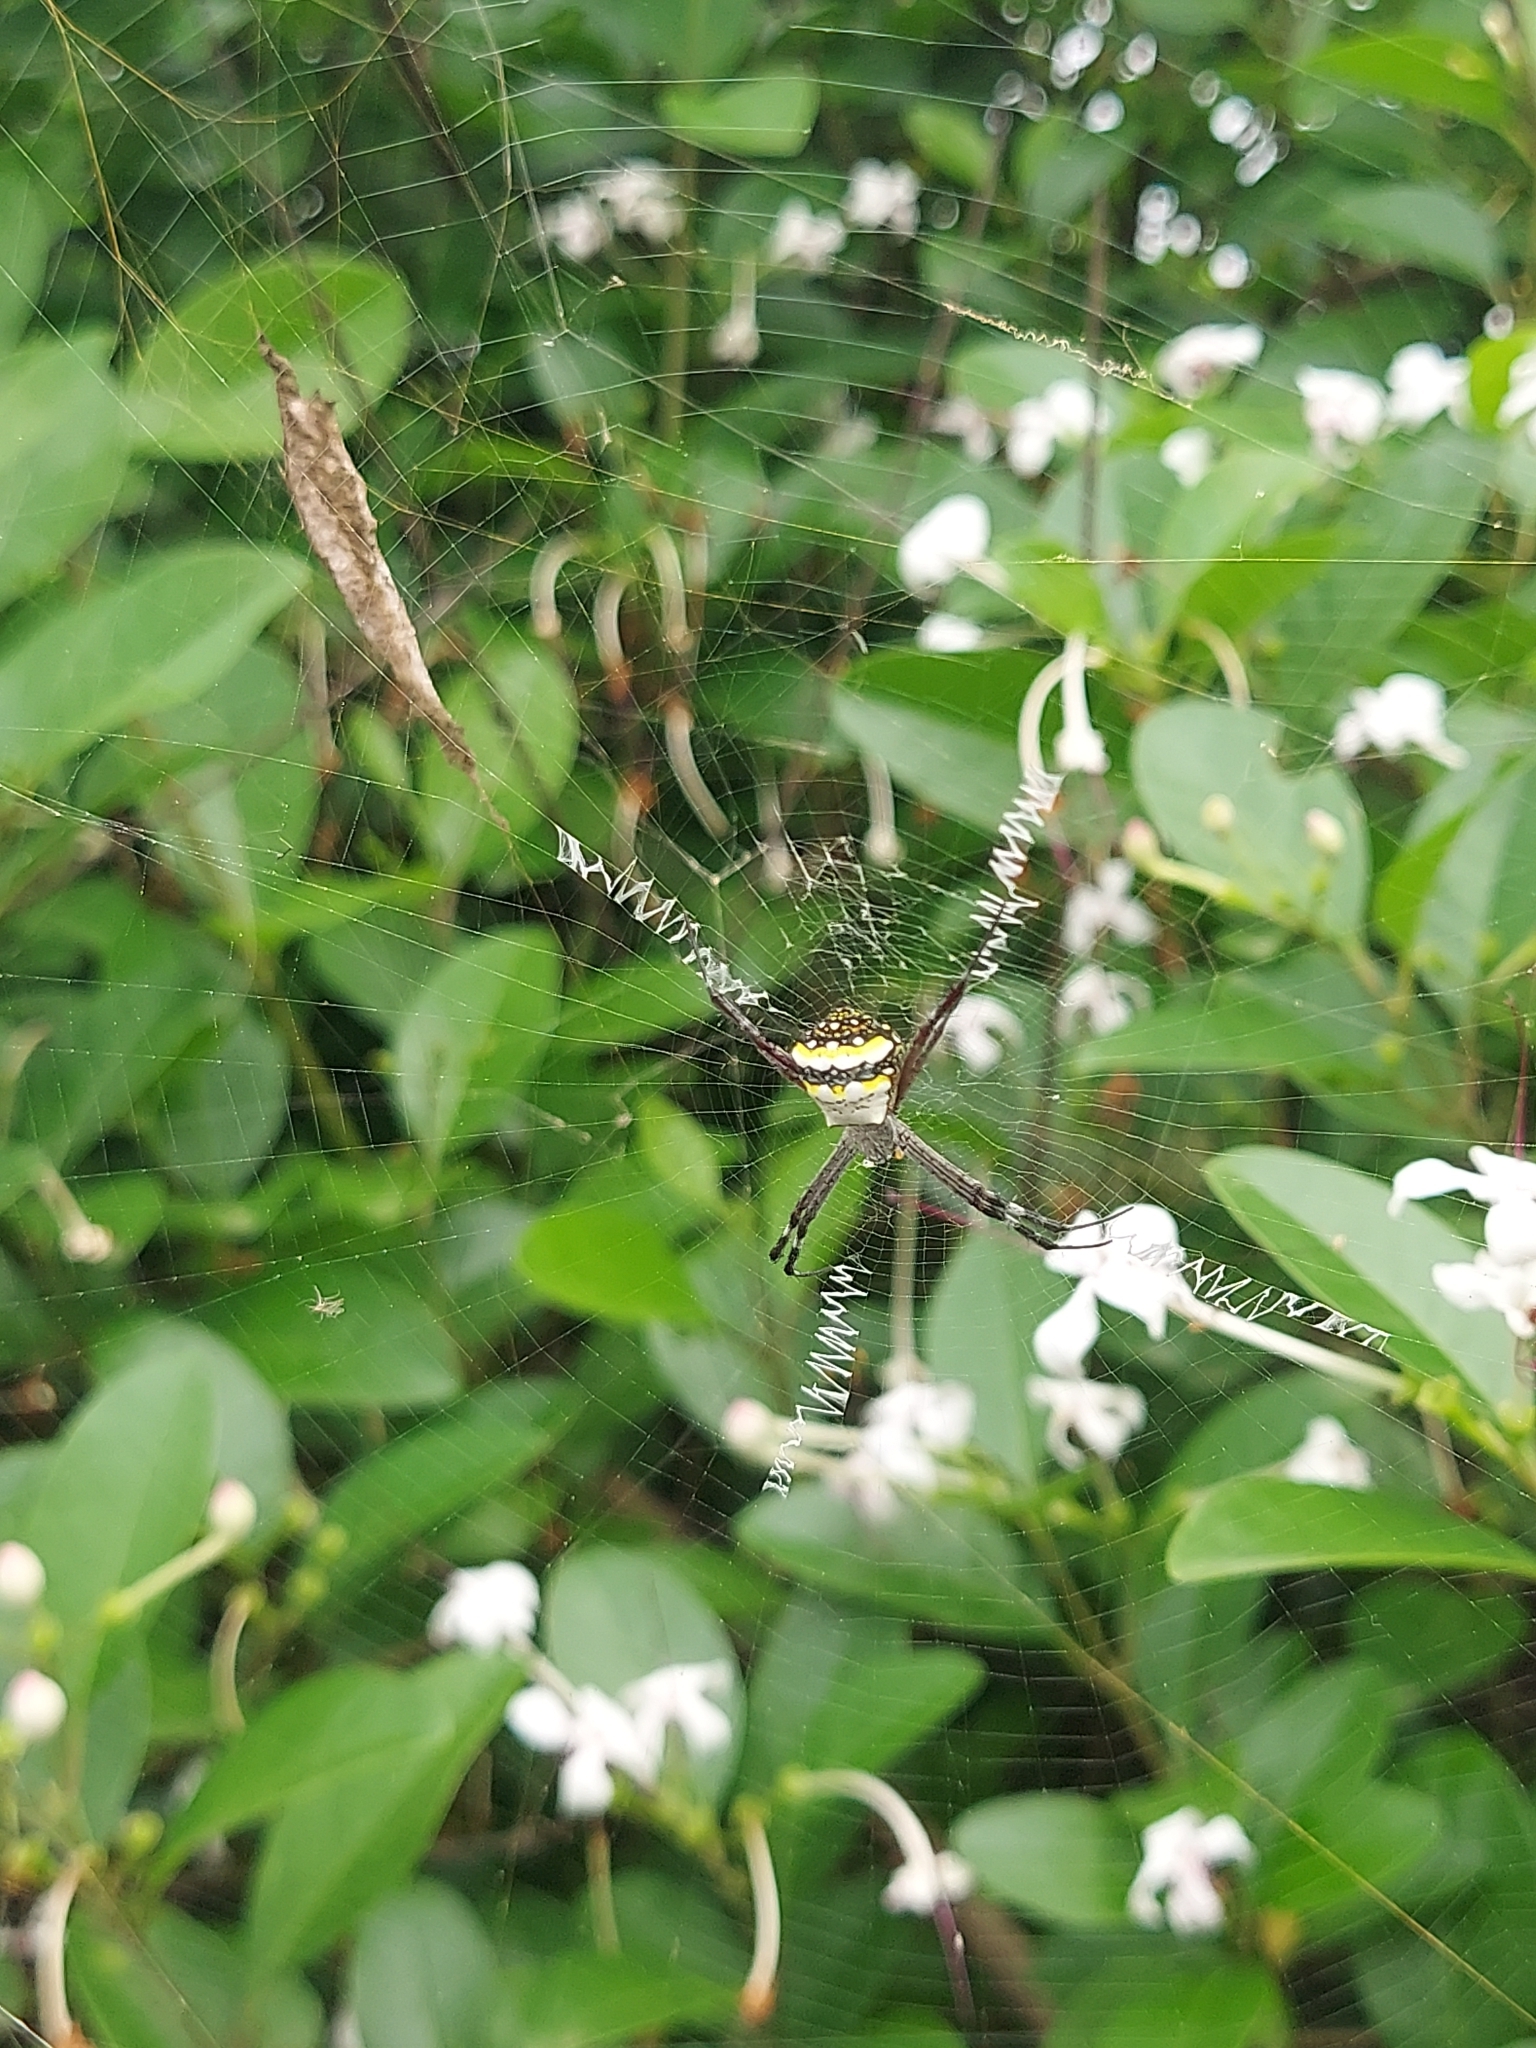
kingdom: Animalia
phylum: Arthropoda
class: Arachnida
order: Araneae
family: Araneidae
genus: Argiope
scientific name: Argiope
